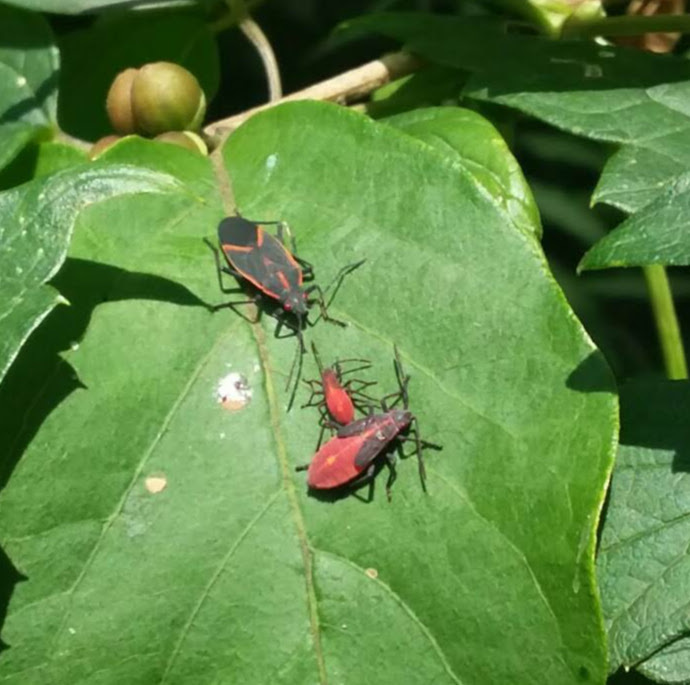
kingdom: Animalia
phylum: Arthropoda
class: Insecta
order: Hemiptera
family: Rhopalidae
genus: Boisea
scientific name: Boisea trivittata
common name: Boxelder bug
